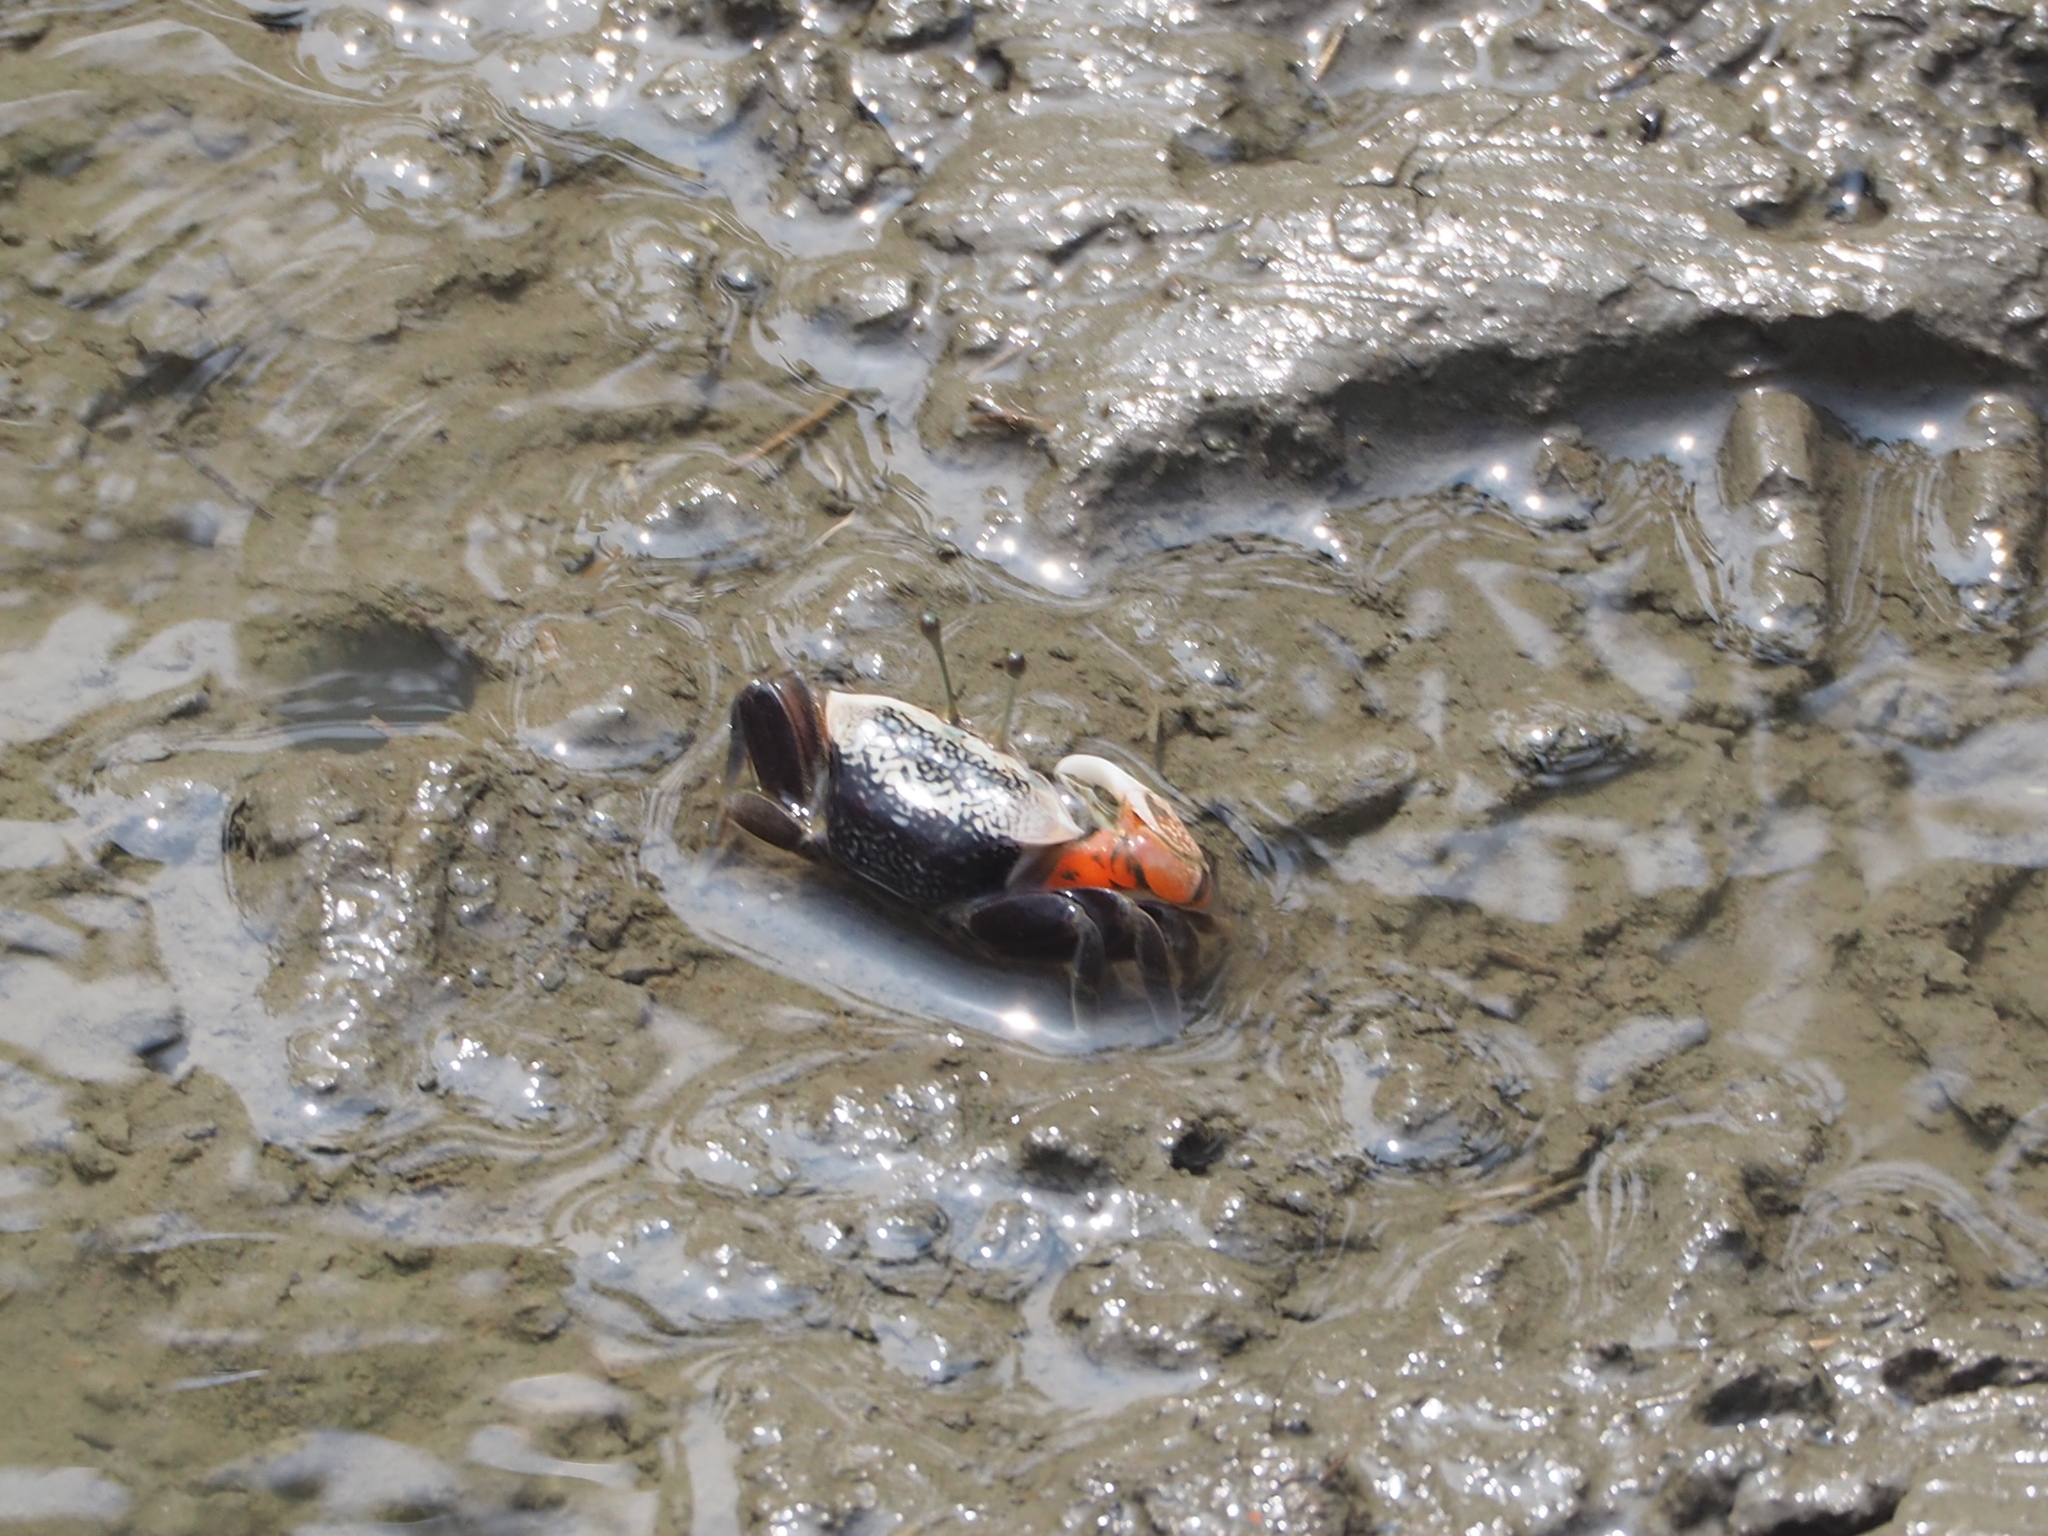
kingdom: Animalia
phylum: Arthropoda
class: Malacostraca
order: Decapoda
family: Ocypodidae
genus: Tubuca
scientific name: Tubuca arcuata
